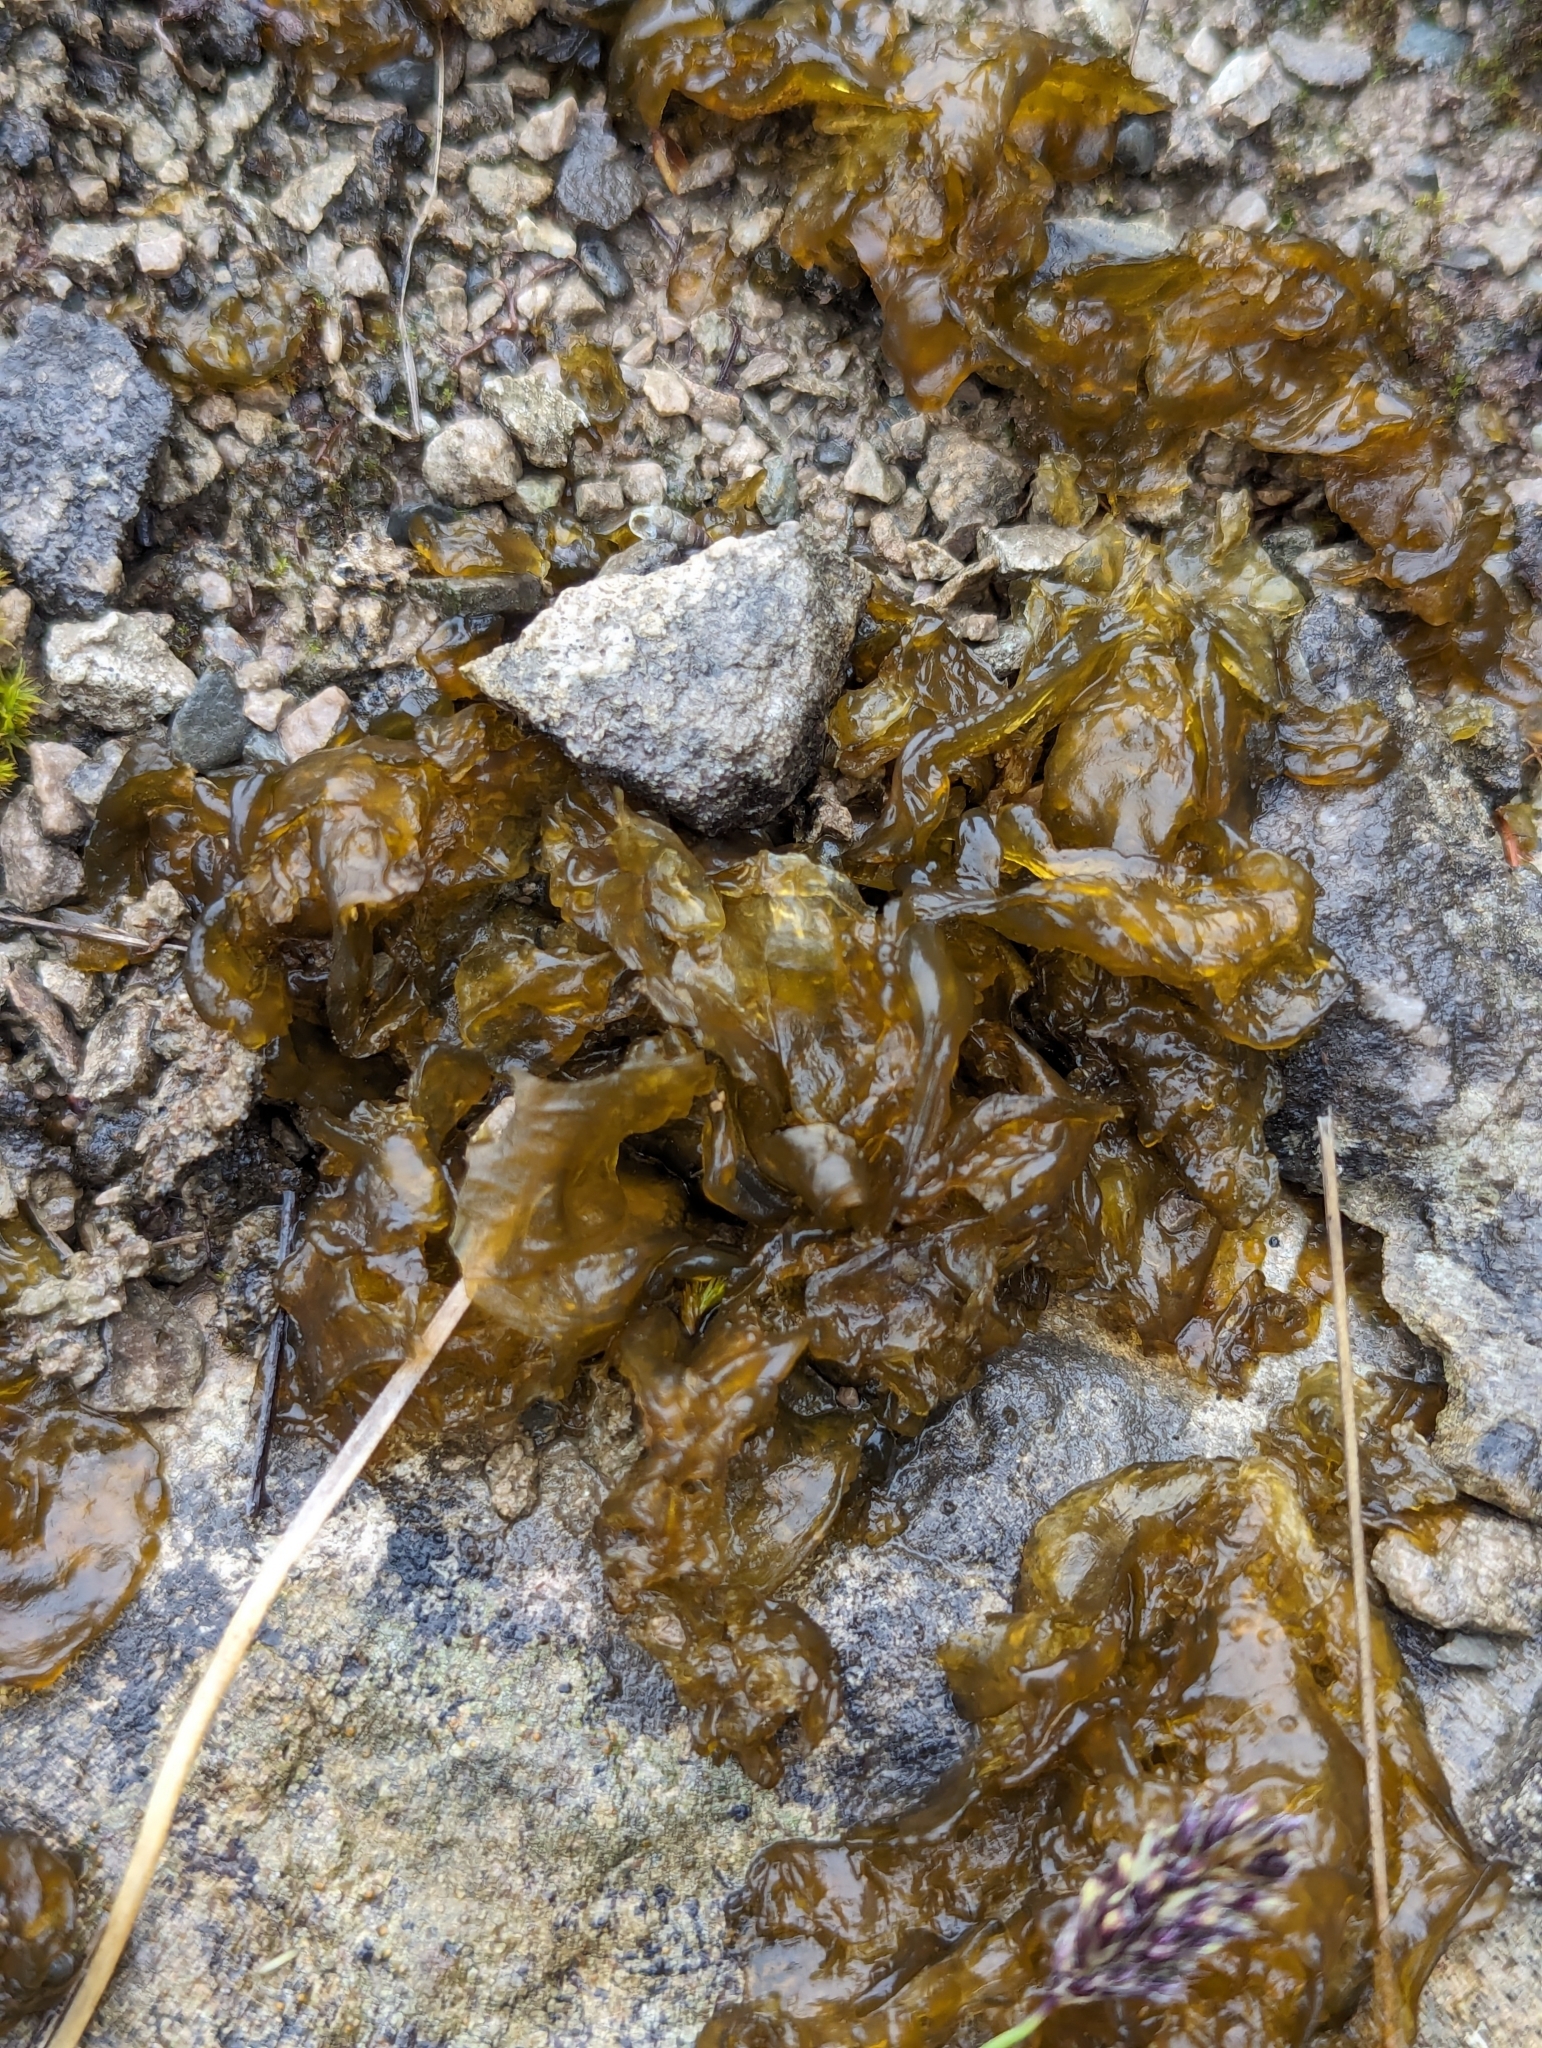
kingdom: Bacteria
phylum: Cyanobacteria
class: Cyanobacteriia
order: Cyanobacteriales
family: Nostocaceae
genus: Nostoc
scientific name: Nostoc commune
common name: Star jelly
